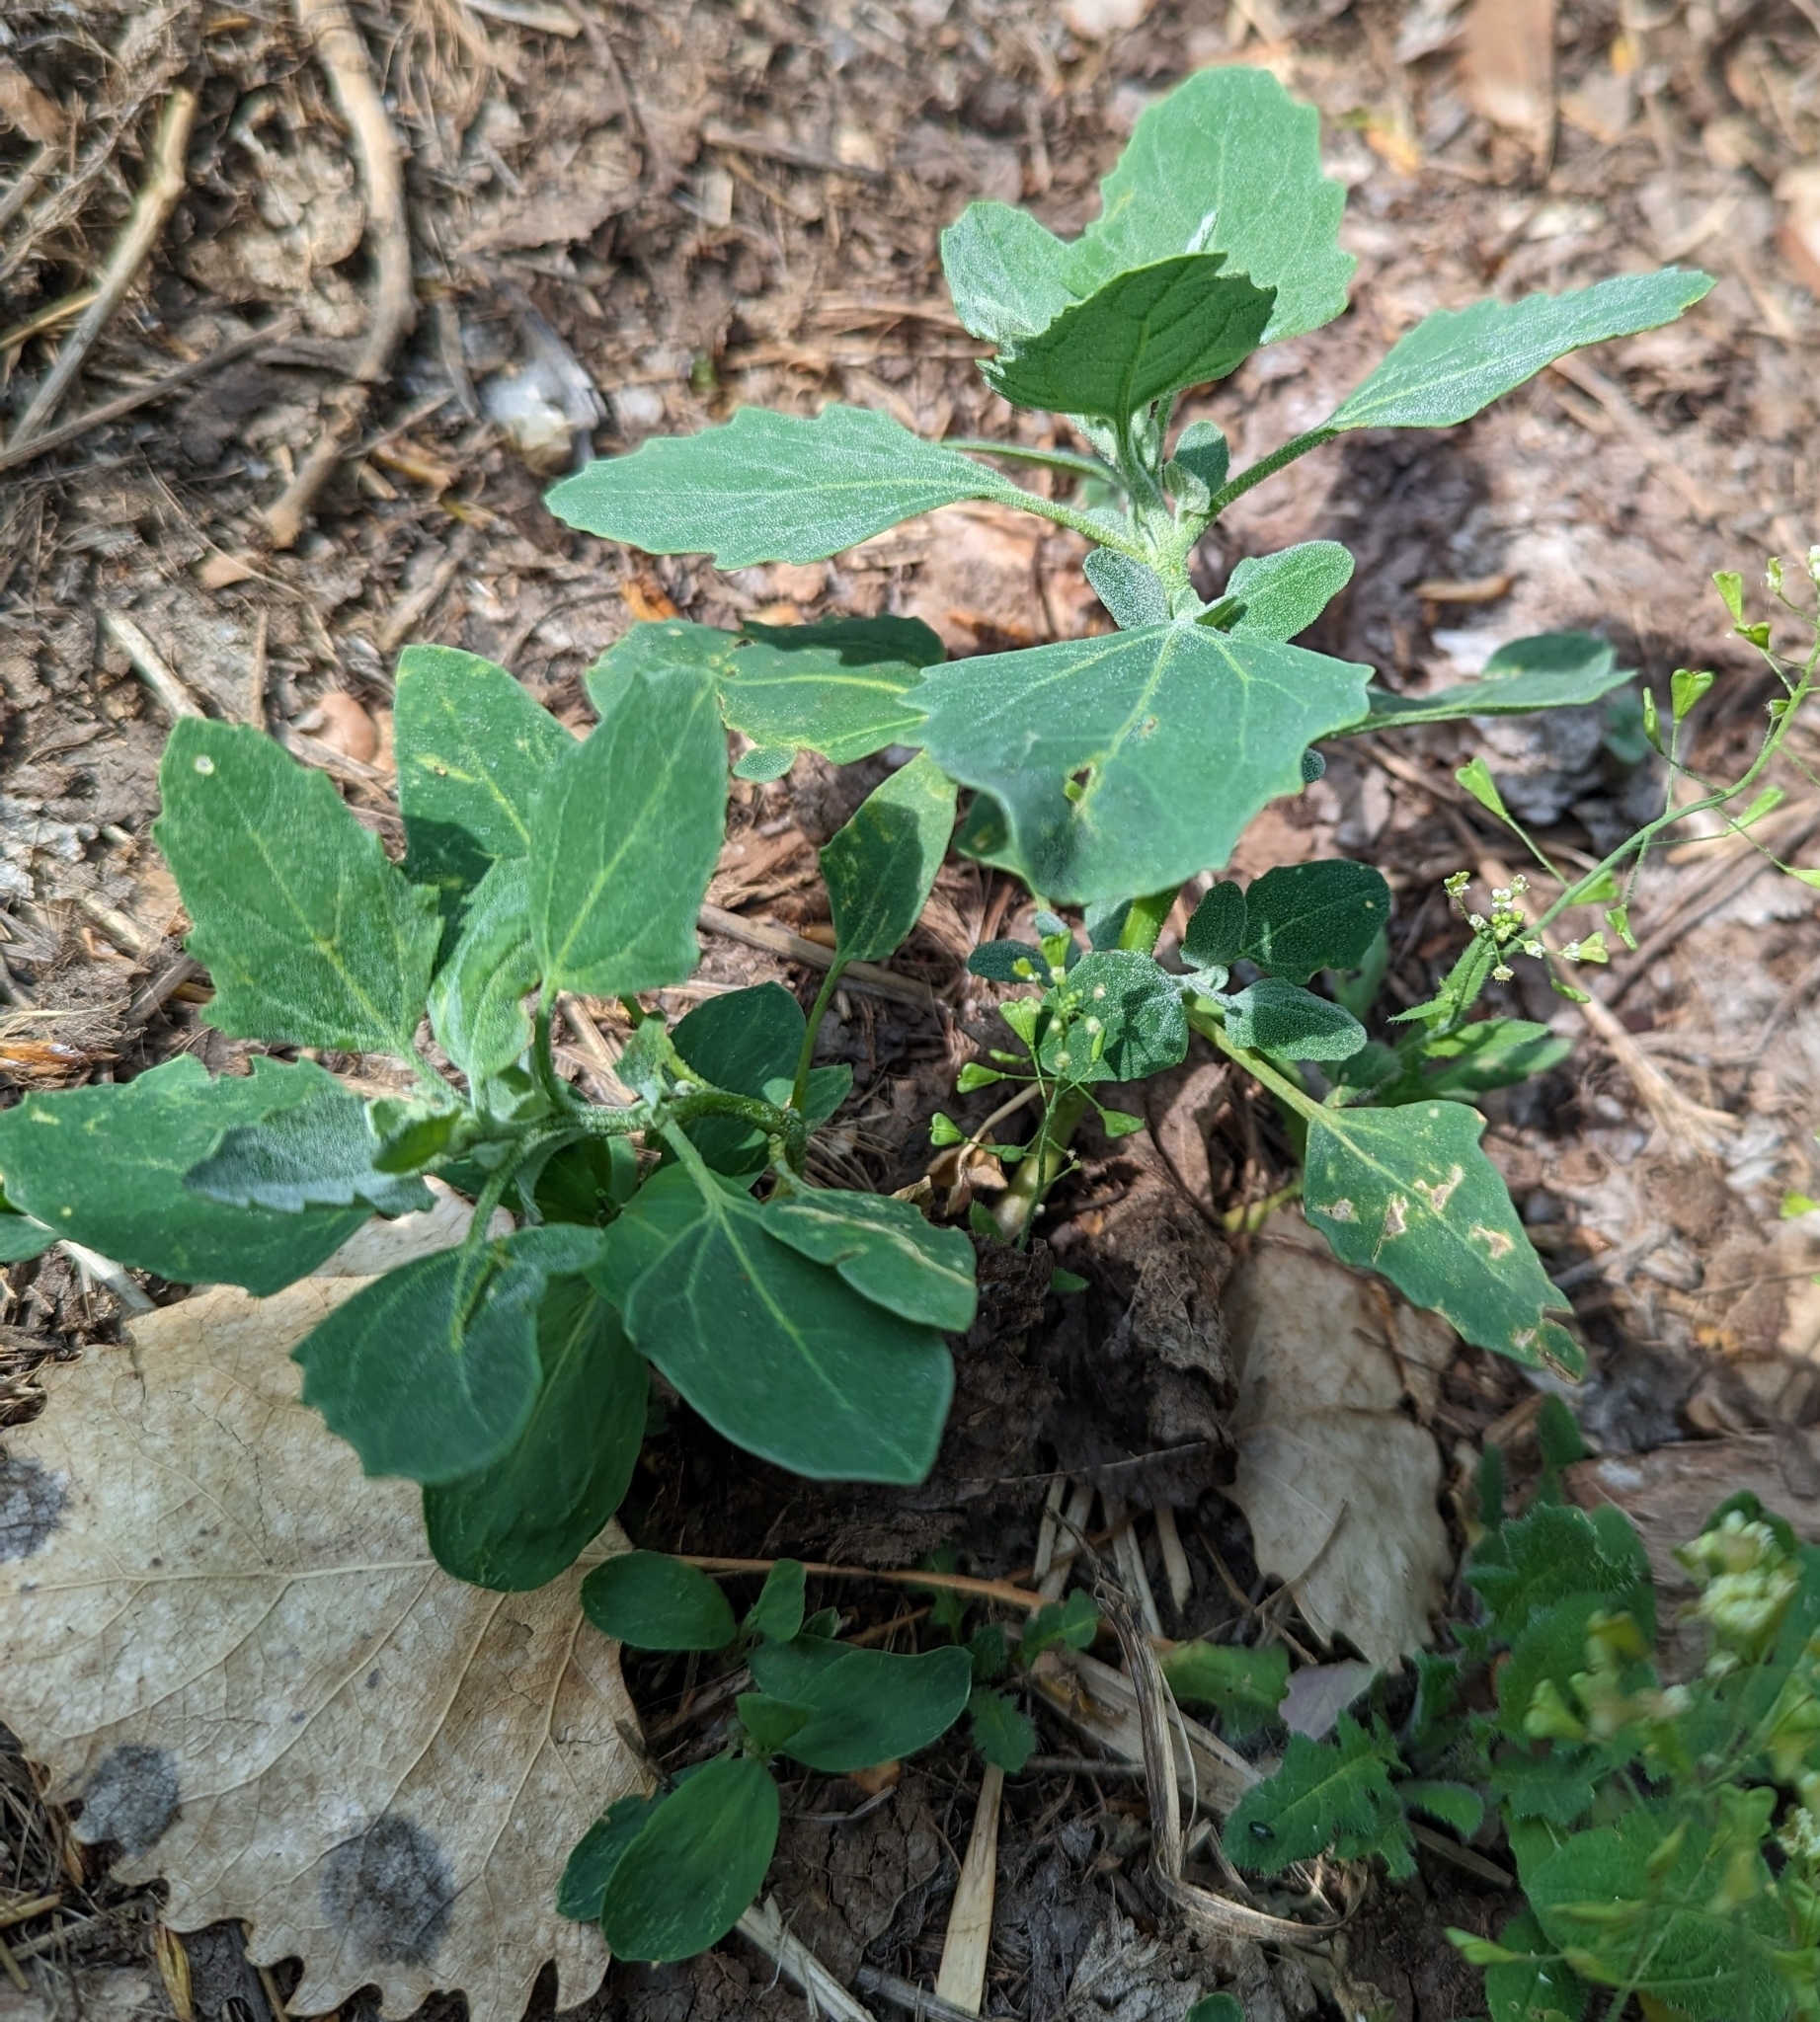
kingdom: Plantae
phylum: Tracheophyta
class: Magnoliopsida
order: Caryophyllales
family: Amaranthaceae
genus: Chenopodium
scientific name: Chenopodium album
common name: Fat-hen
